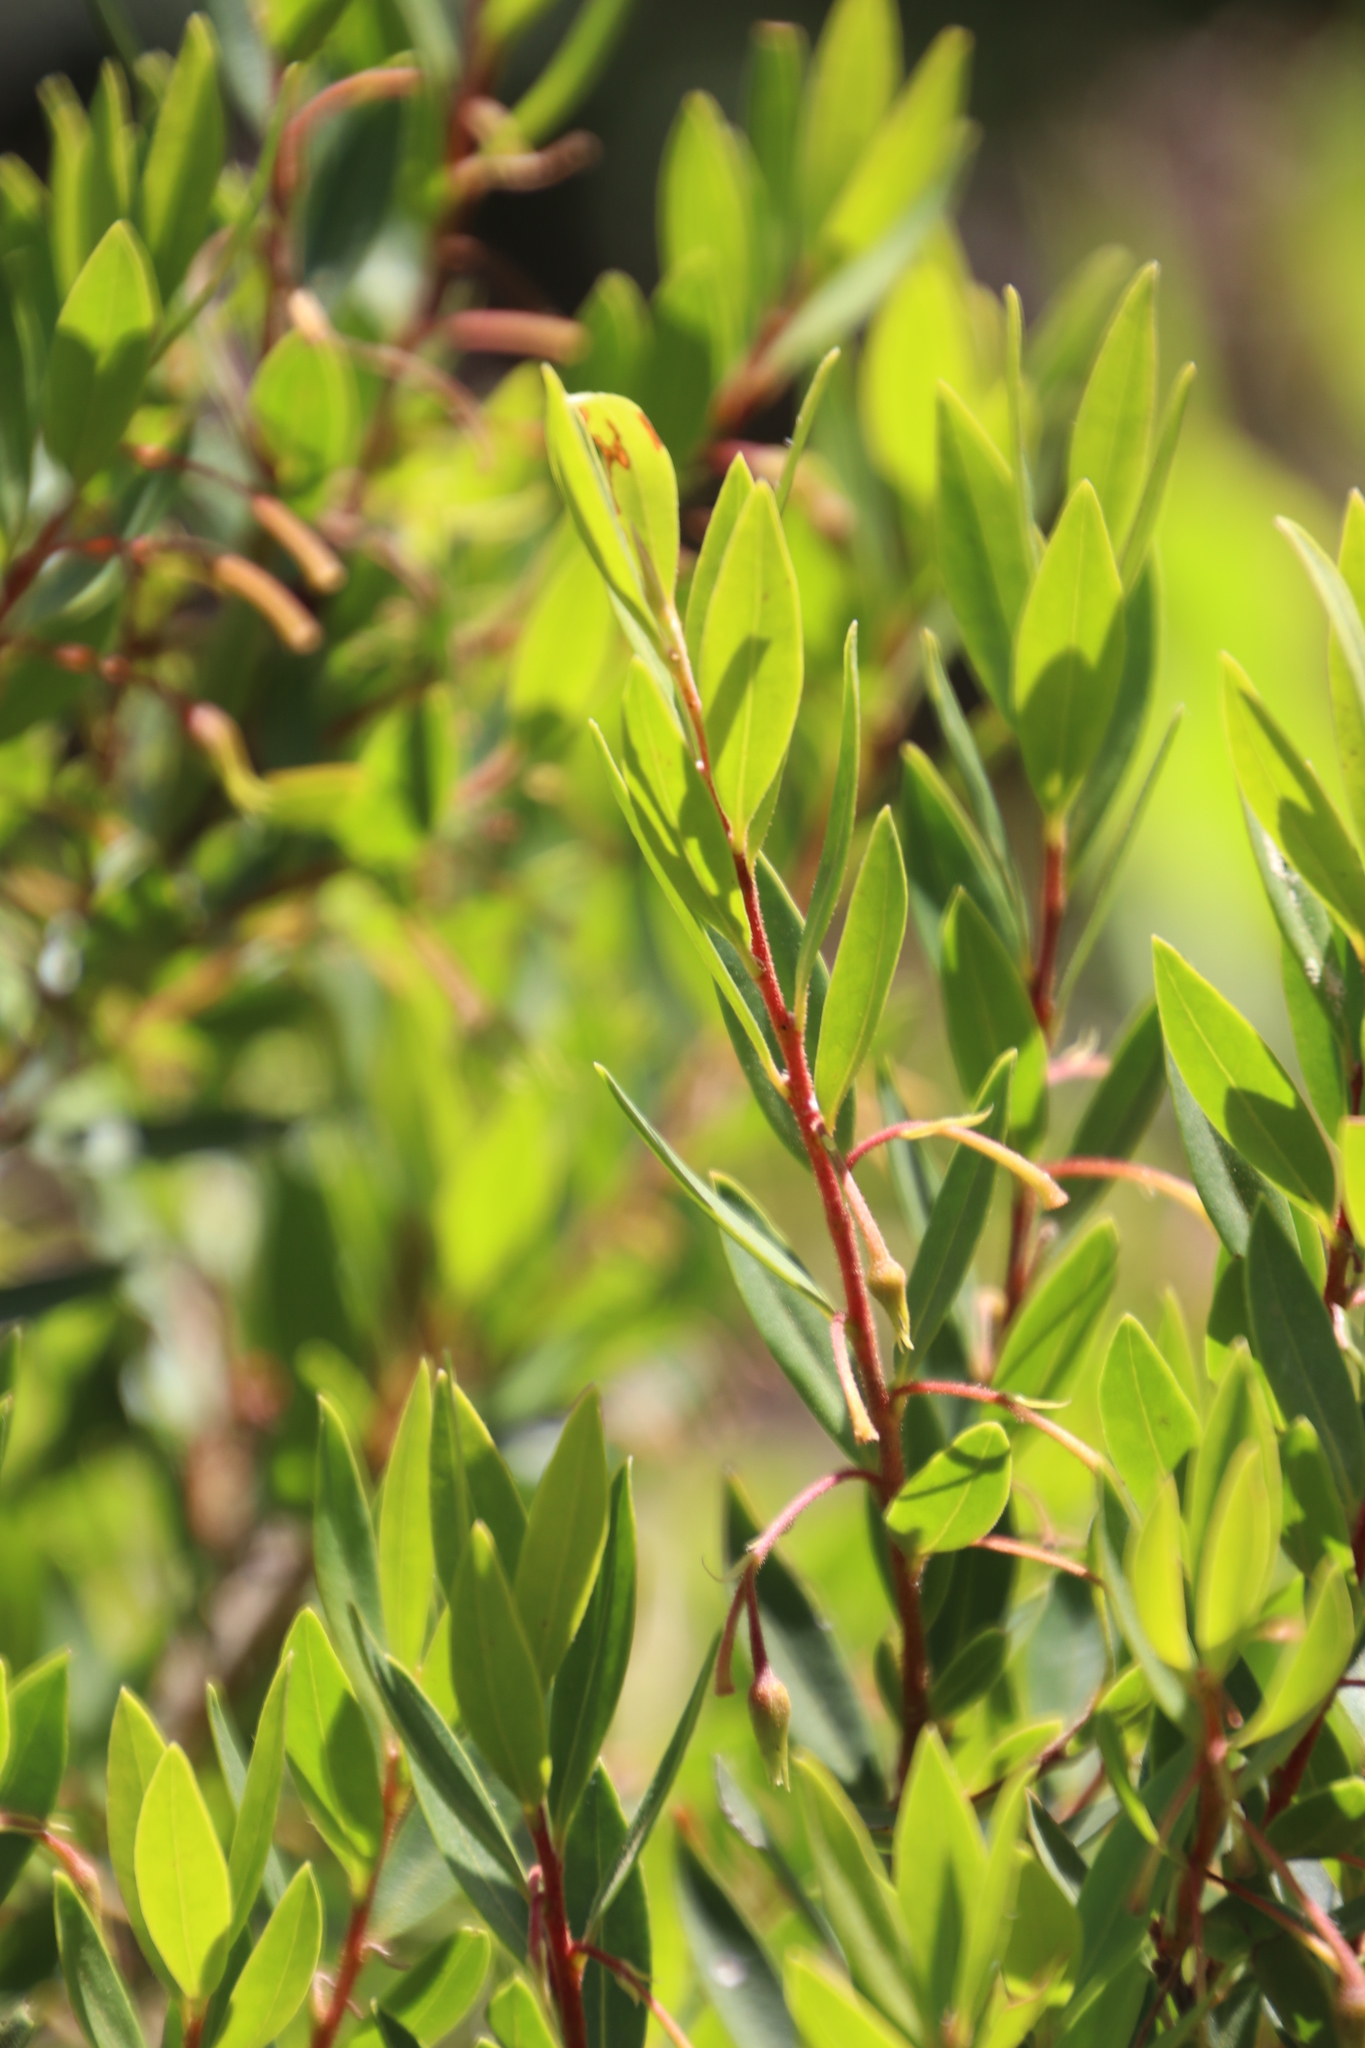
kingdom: Plantae
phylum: Tracheophyta
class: Magnoliopsida
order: Ericales
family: Ebenaceae
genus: Diospyros
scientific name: Diospyros glabra
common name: Fynbos star apple
